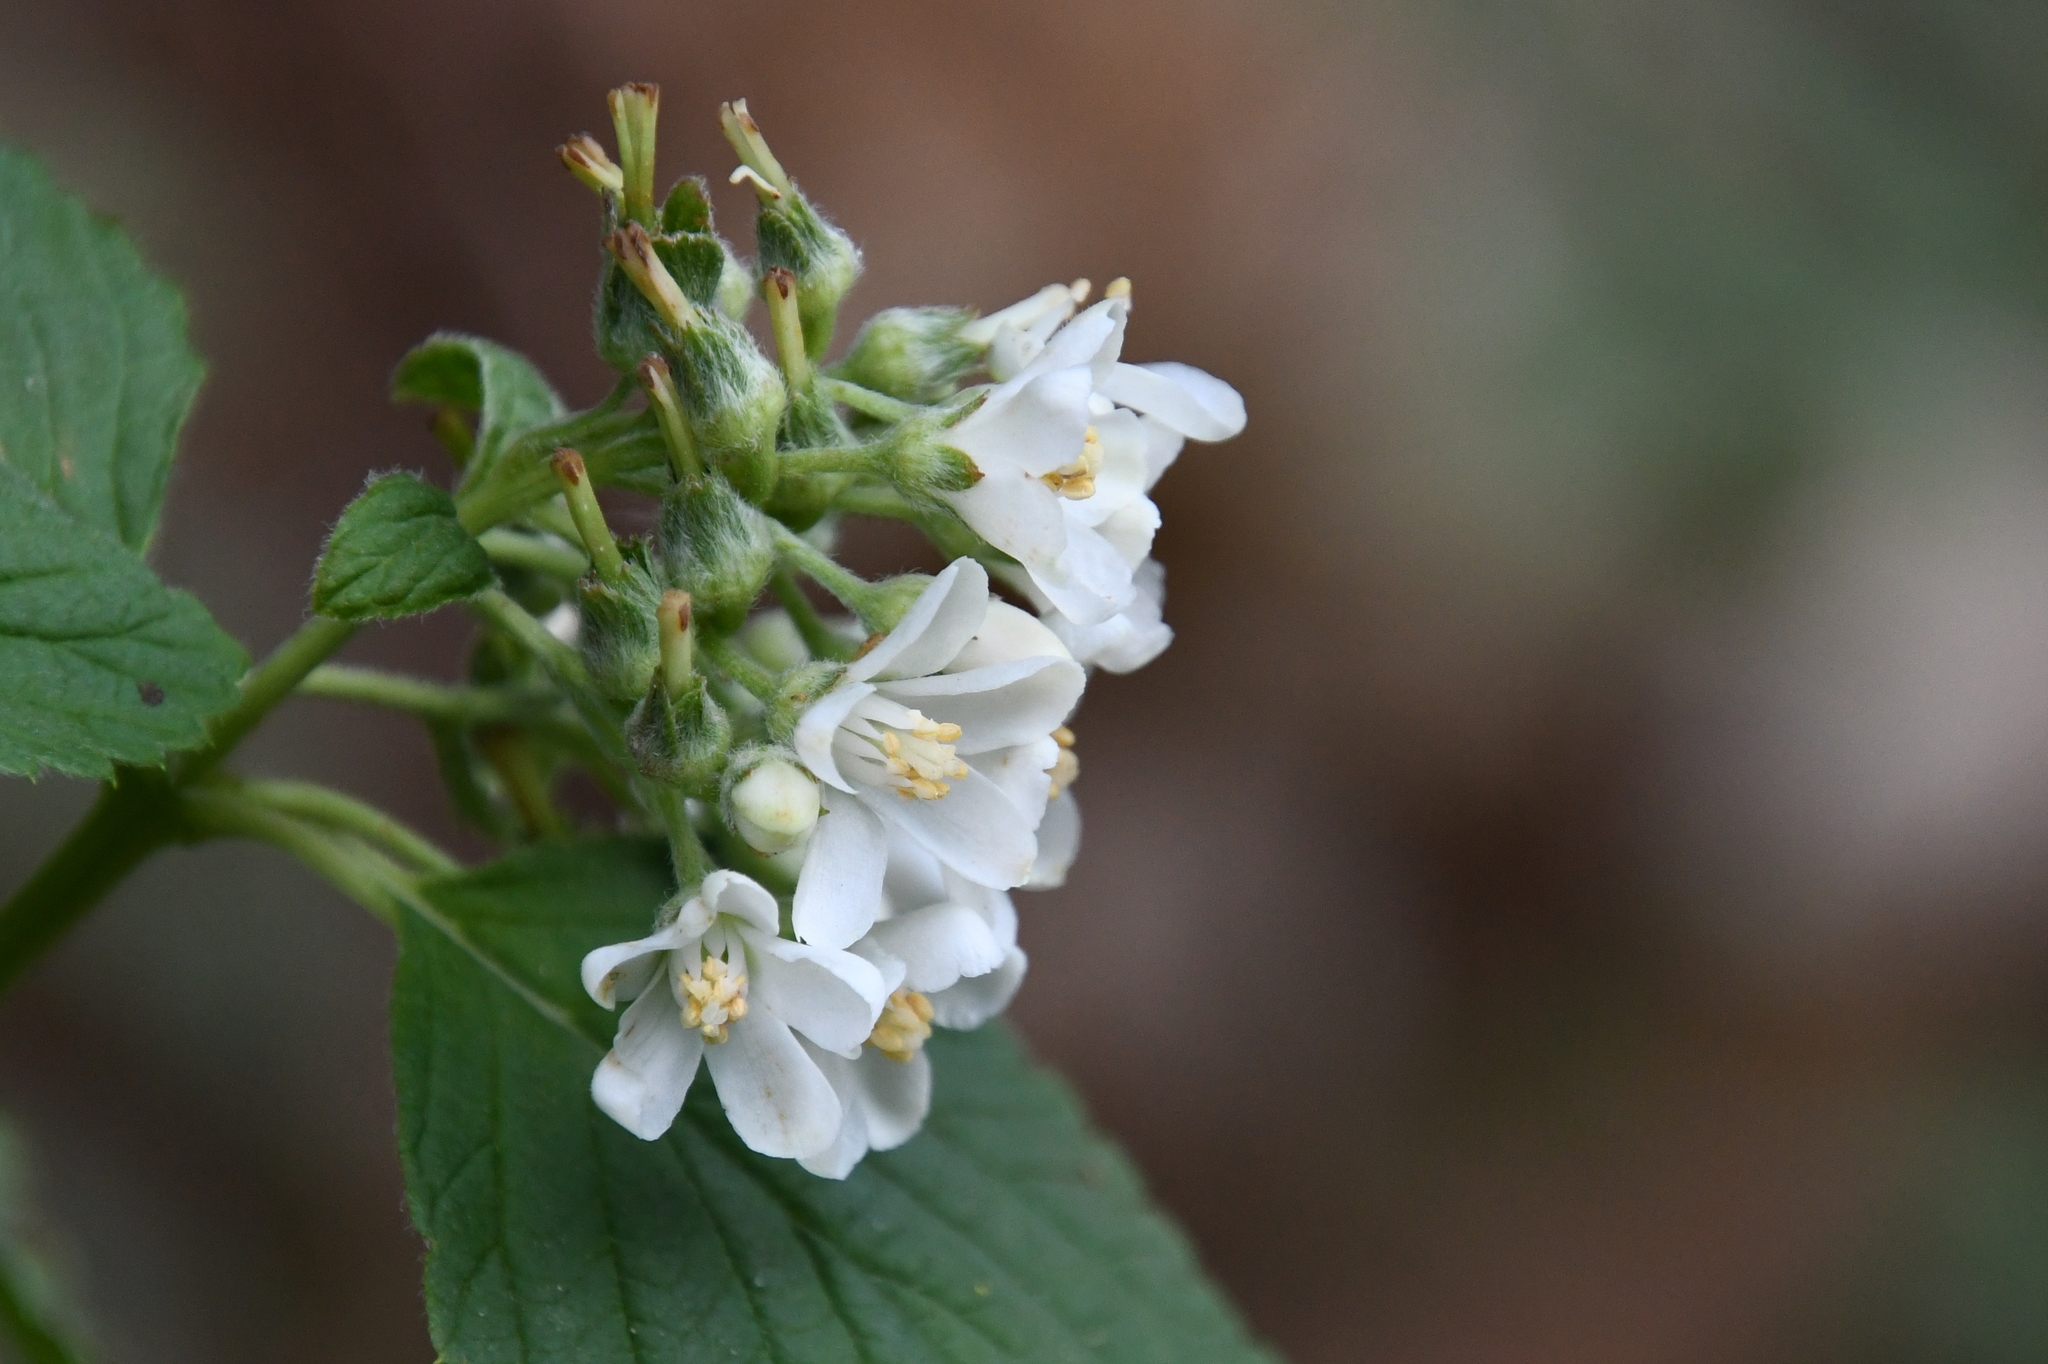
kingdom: Plantae
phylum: Tracheophyta
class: Magnoliopsida
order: Cornales
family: Hydrangeaceae
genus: Jamesia
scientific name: Jamesia americana
